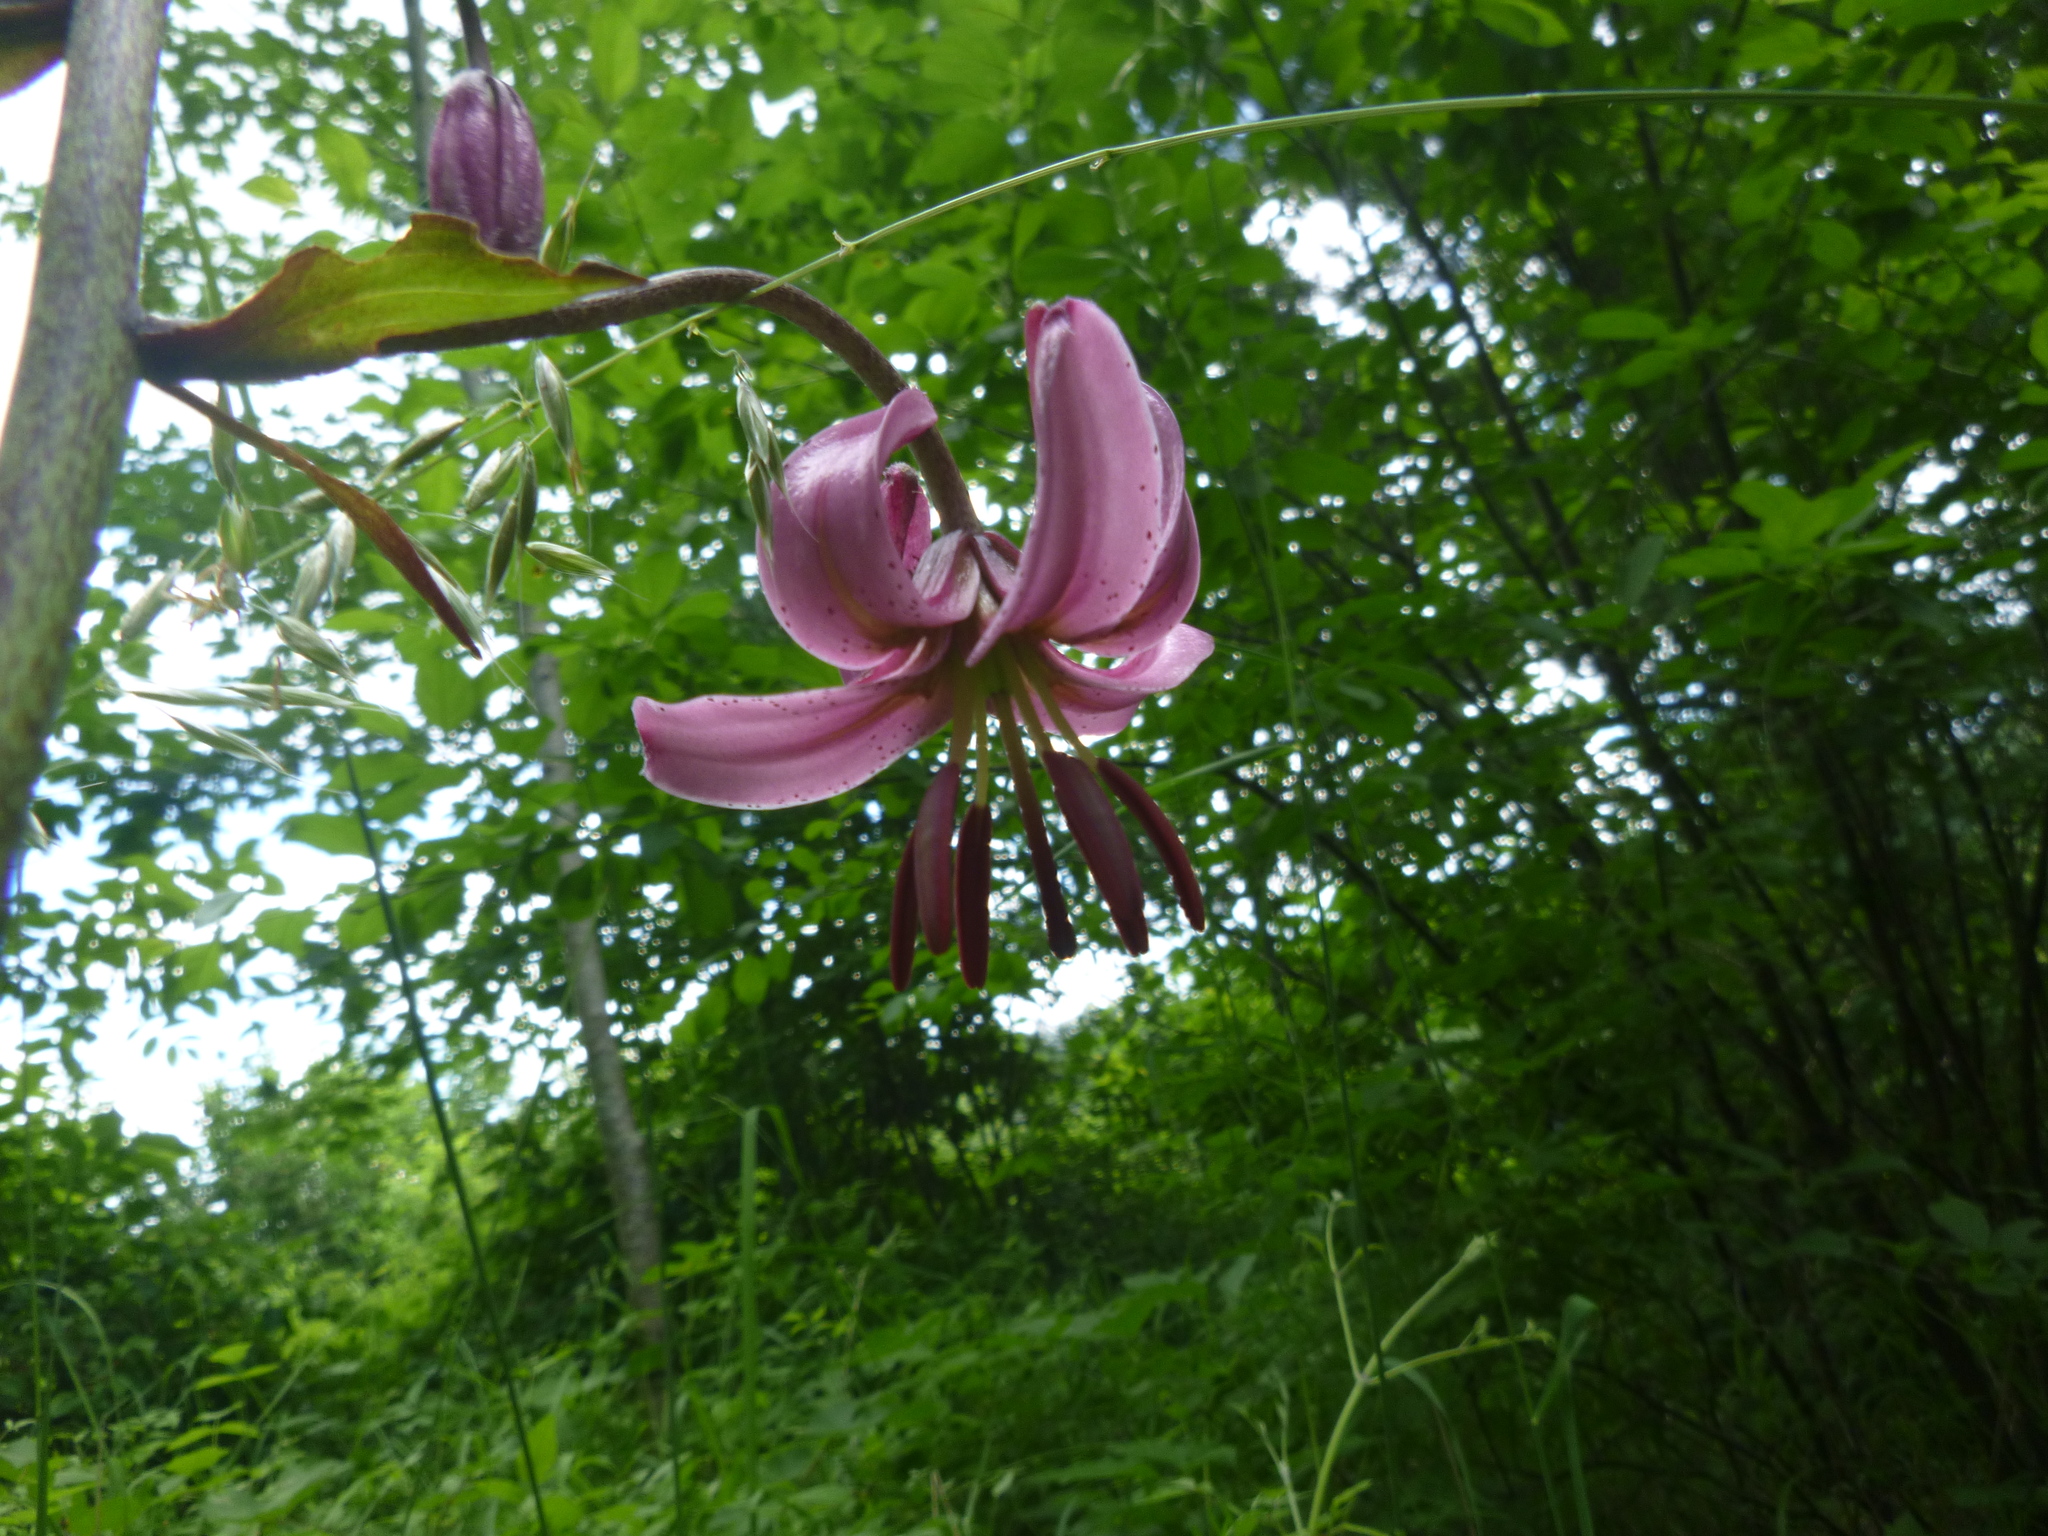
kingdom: Plantae
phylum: Tracheophyta
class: Liliopsida
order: Liliales
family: Liliaceae
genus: Lilium
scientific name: Lilium martagon
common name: Martagon lily
